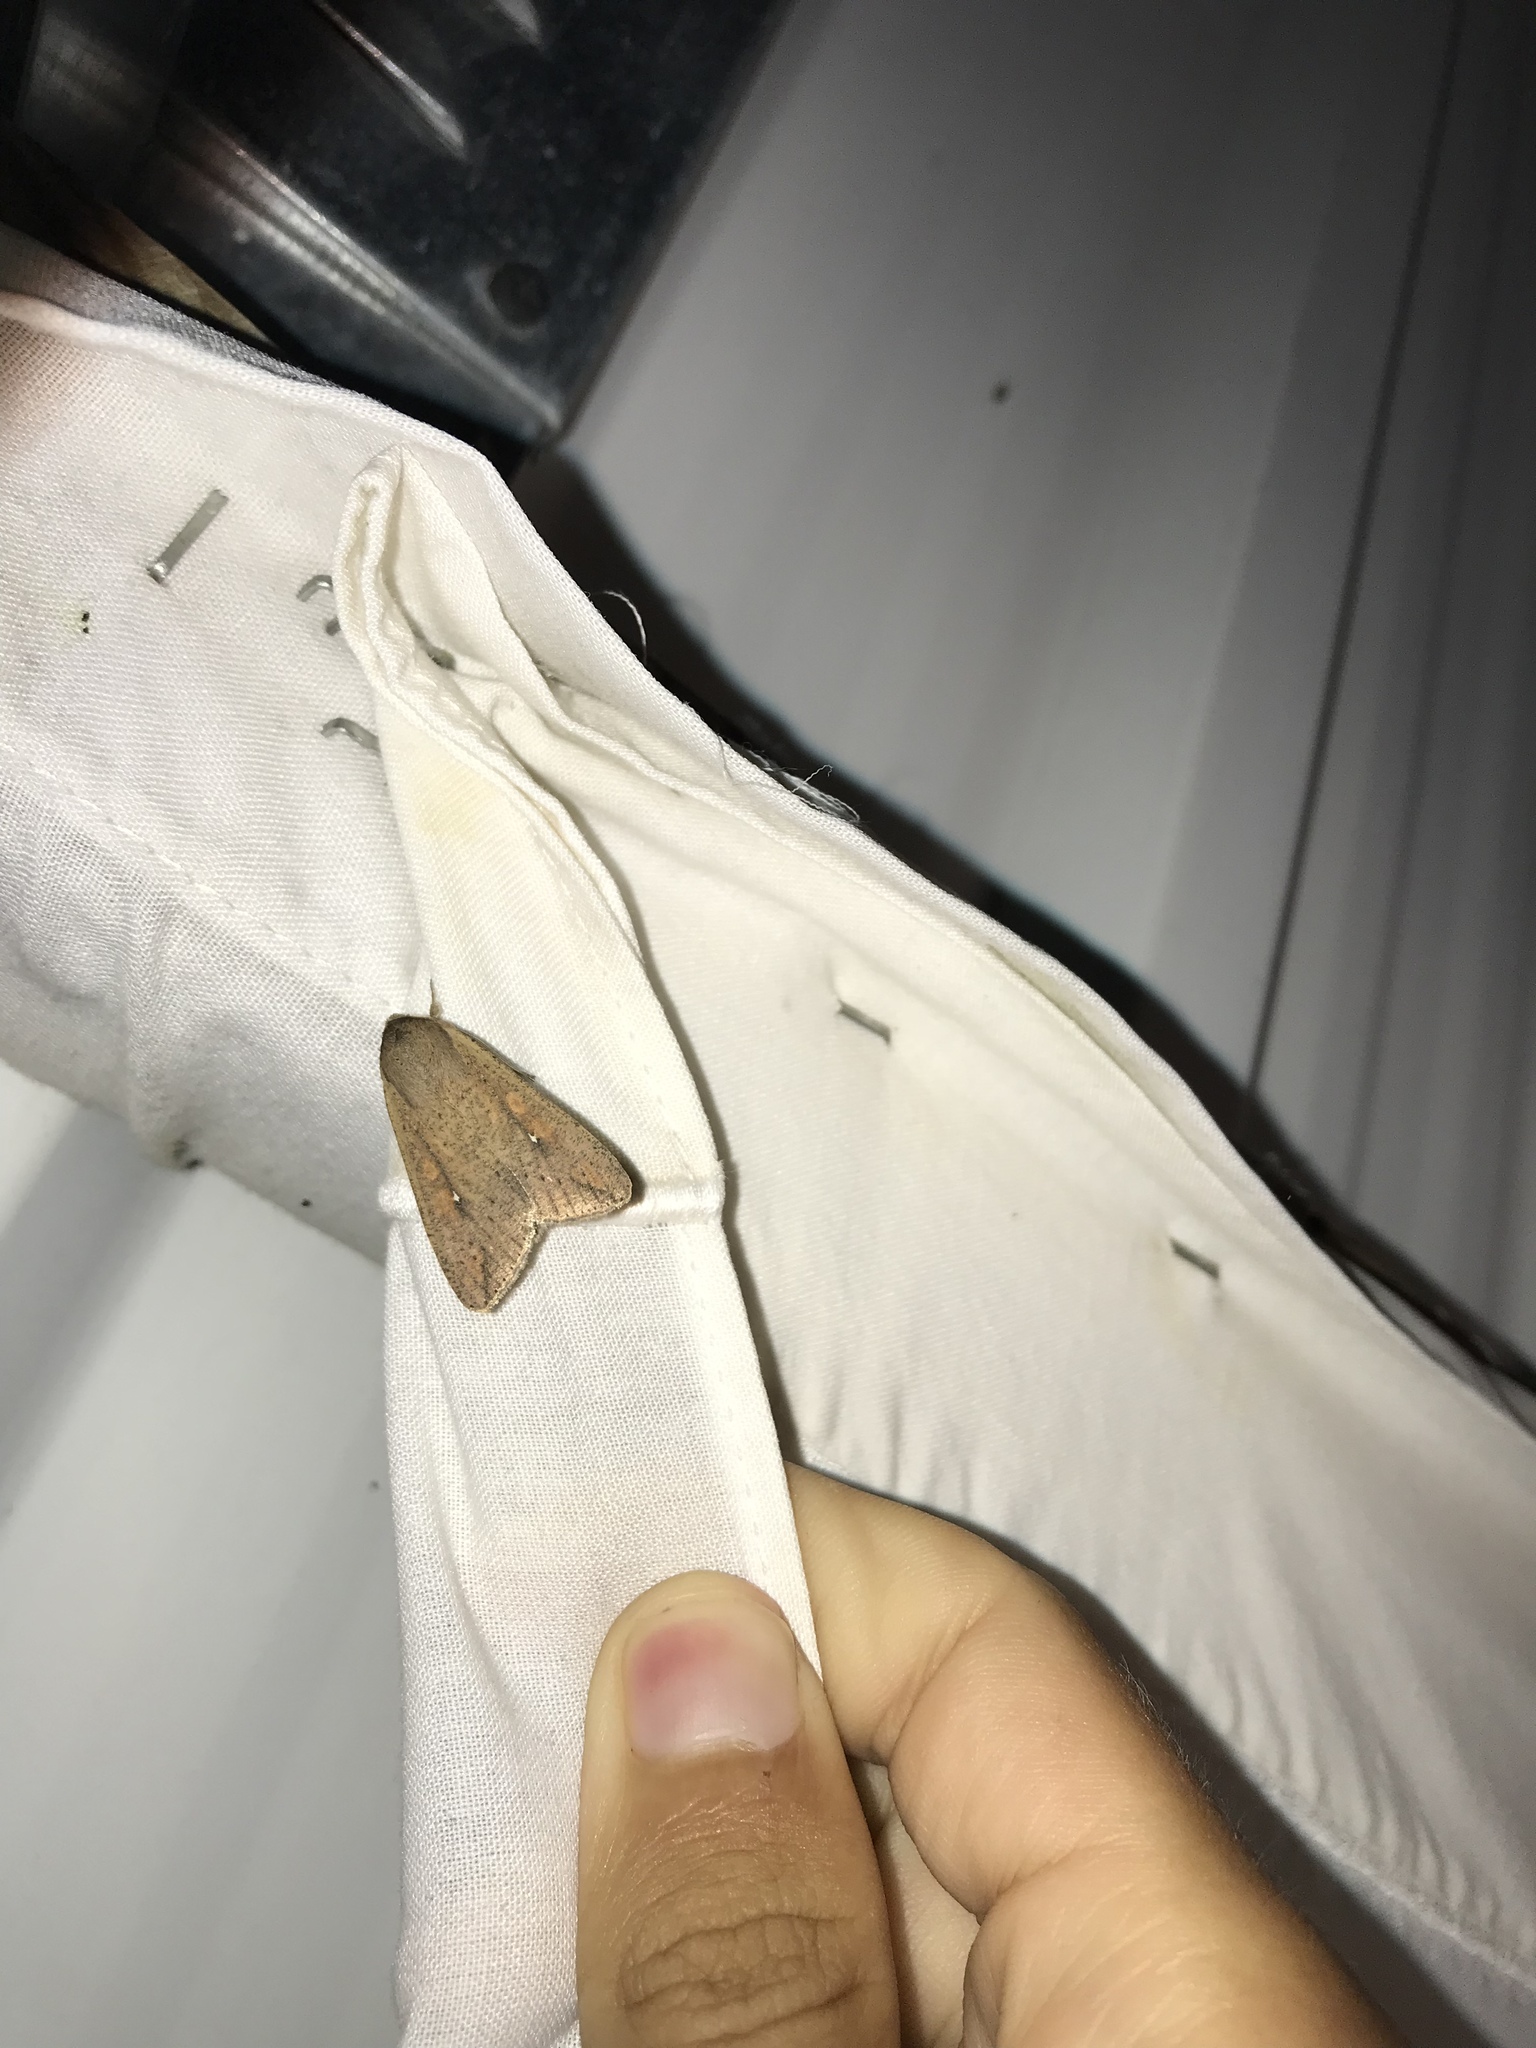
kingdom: Animalia
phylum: Arthropoda
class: Insecta
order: Lepidoptera
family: Noctuidae
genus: Mythimna
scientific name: Mythimna unipuncta
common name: White-speck
